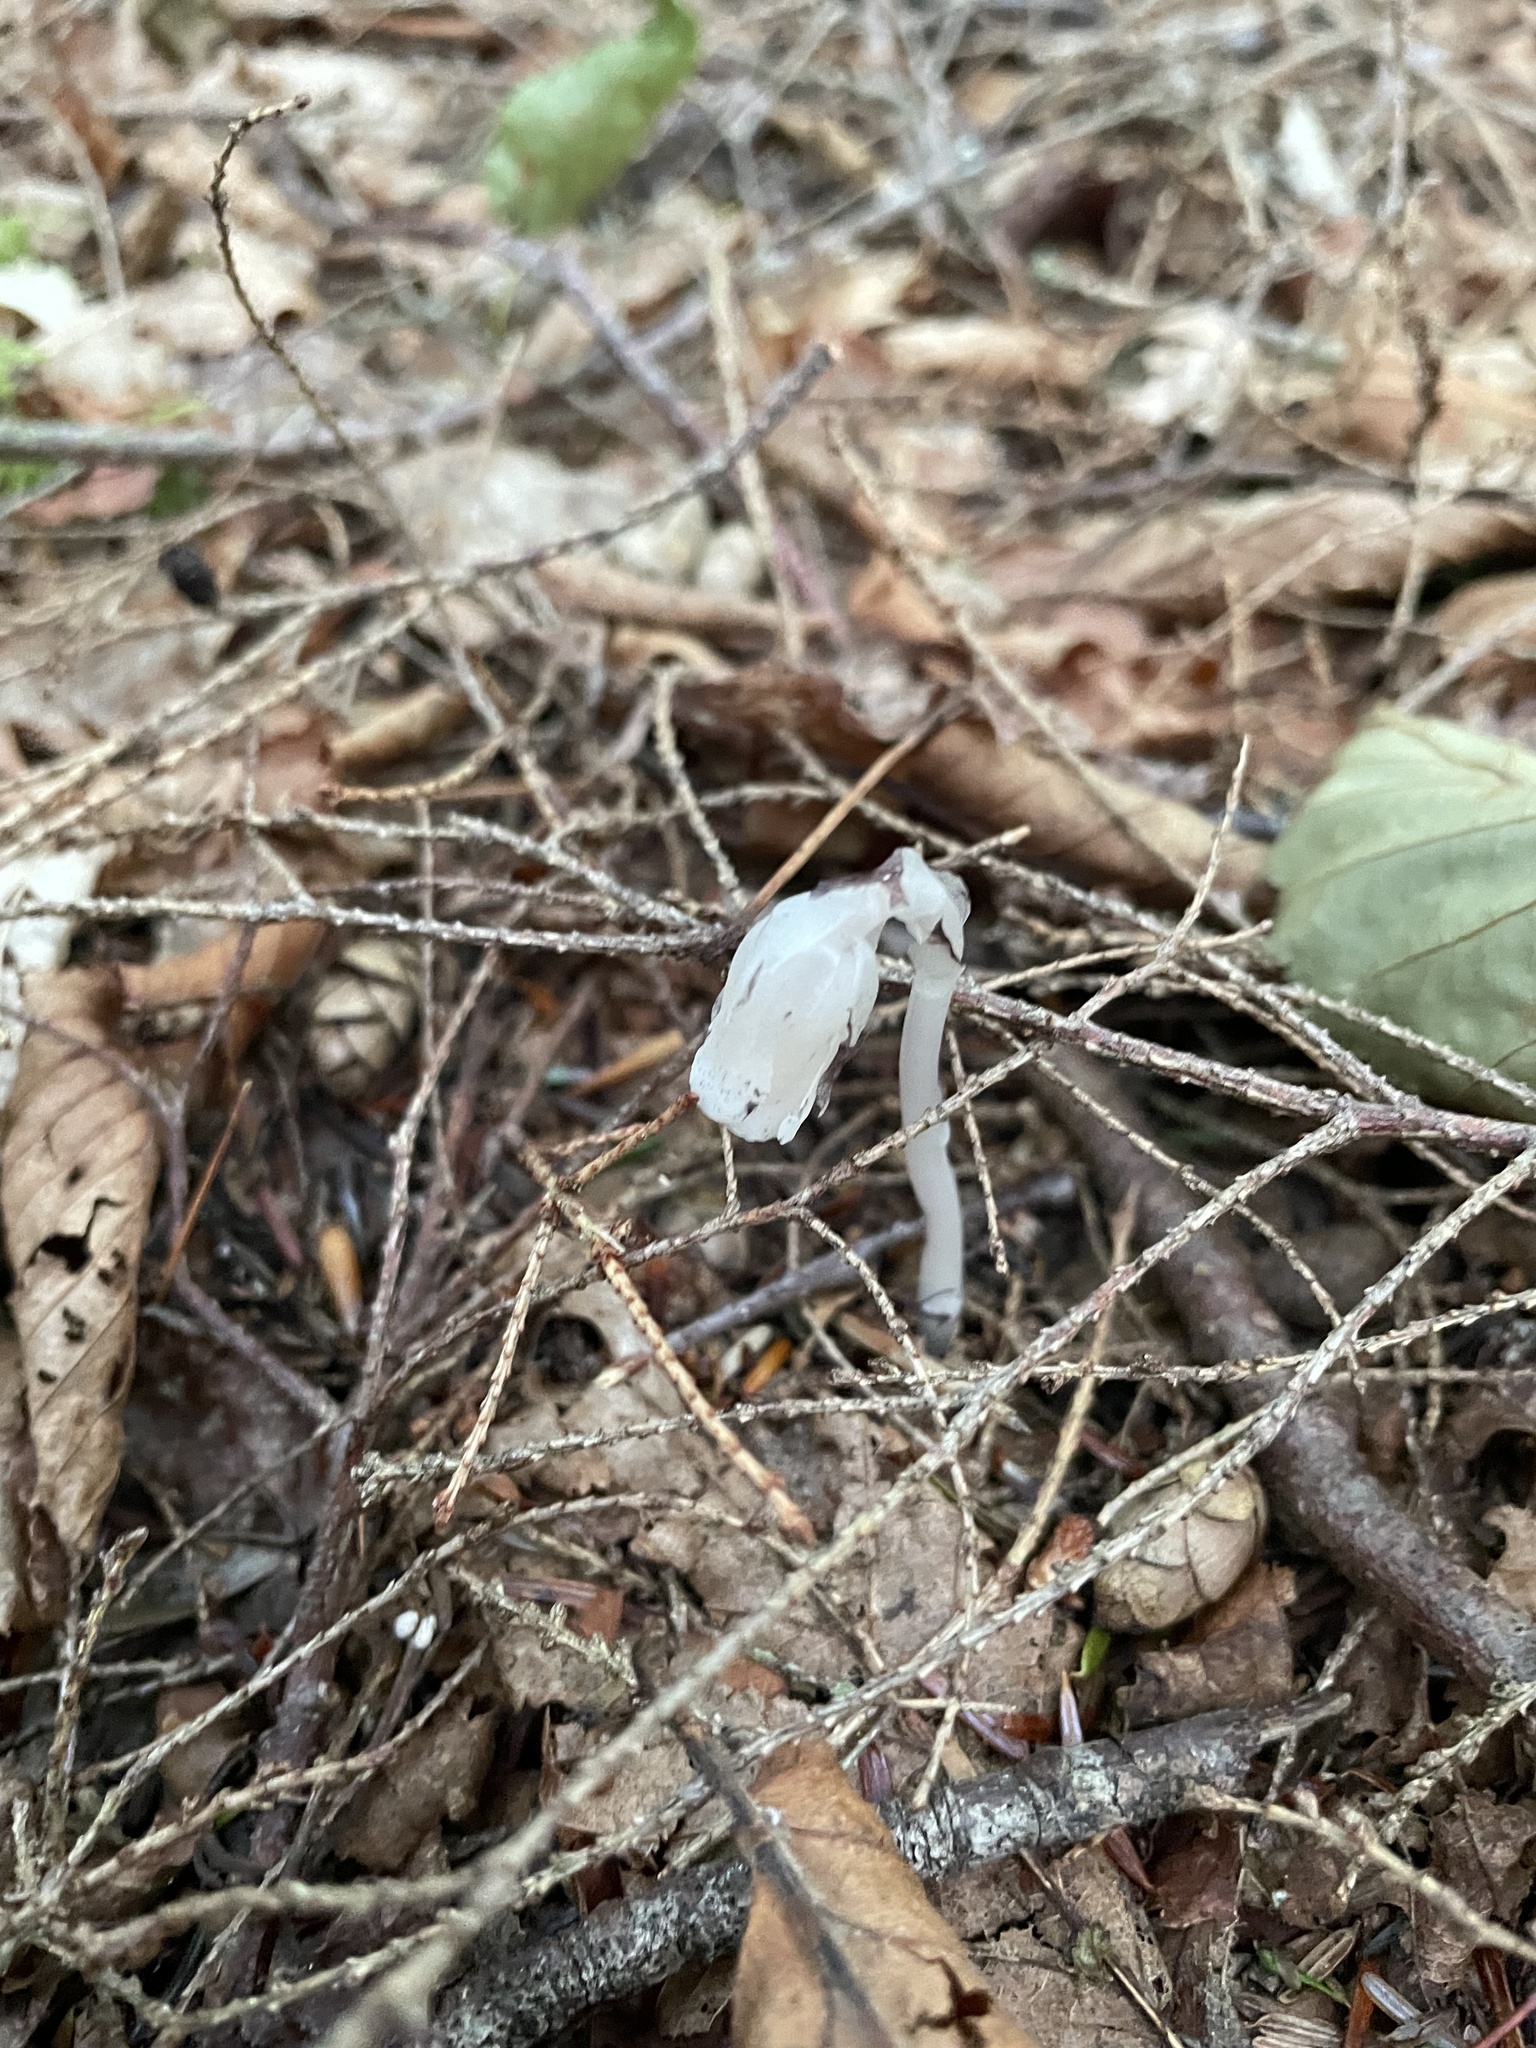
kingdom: Plantae
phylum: Tracheophyta
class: Magnoliopsida
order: Ericales
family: Ericaceae
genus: Monotropa
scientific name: Monotropa uniflora
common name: Convulsion root
